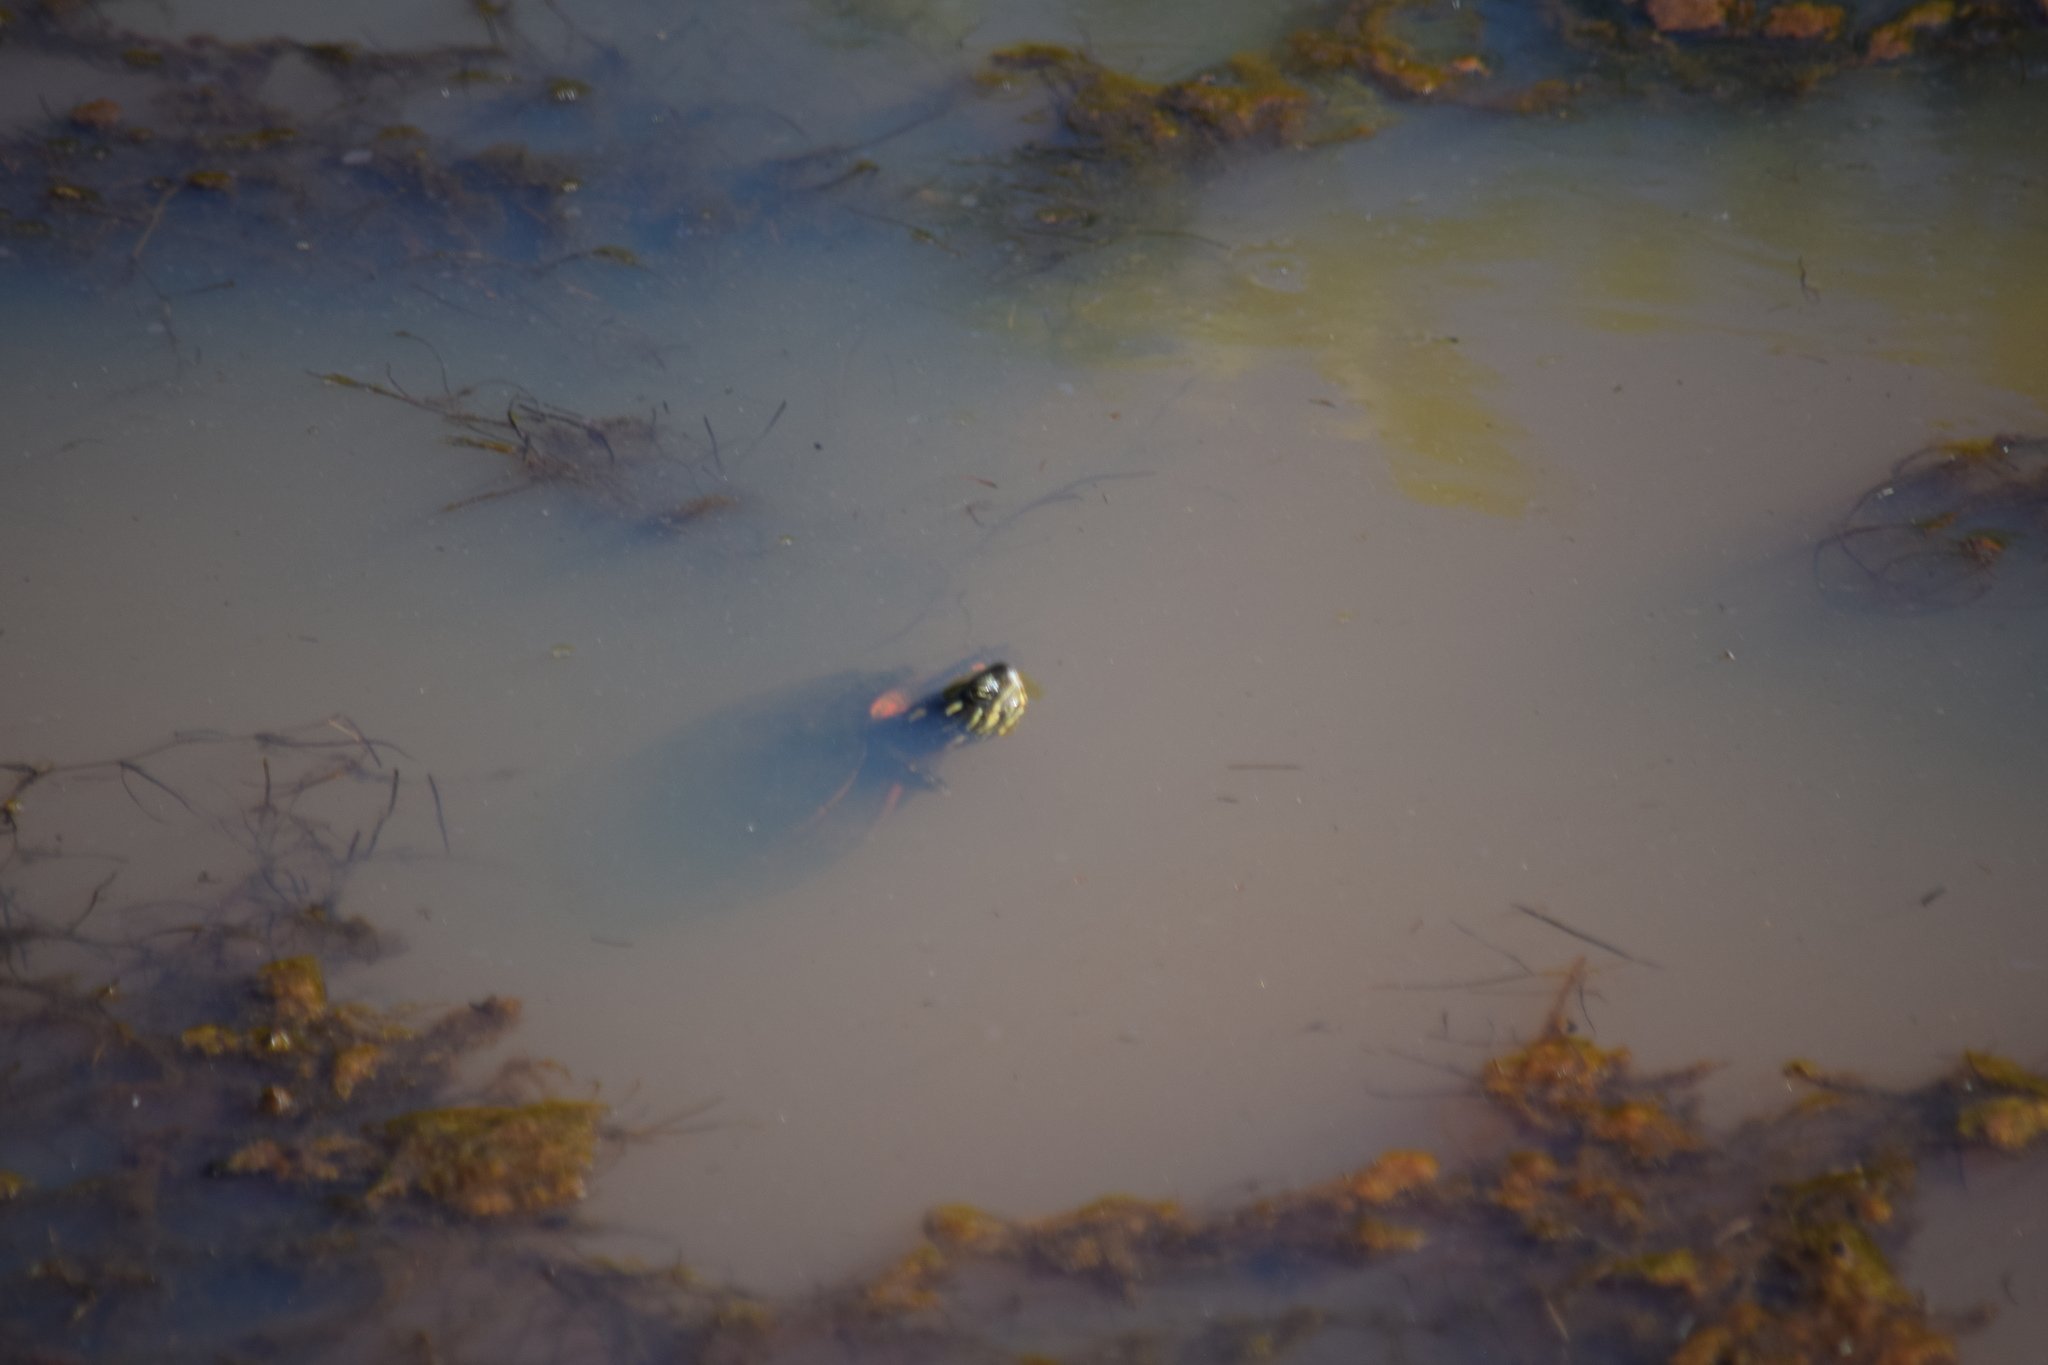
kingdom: Animalia
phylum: Chordata
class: Testudines
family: Emydidae
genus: Chrysemys
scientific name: Chrysemys picta
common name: Painted turtle
